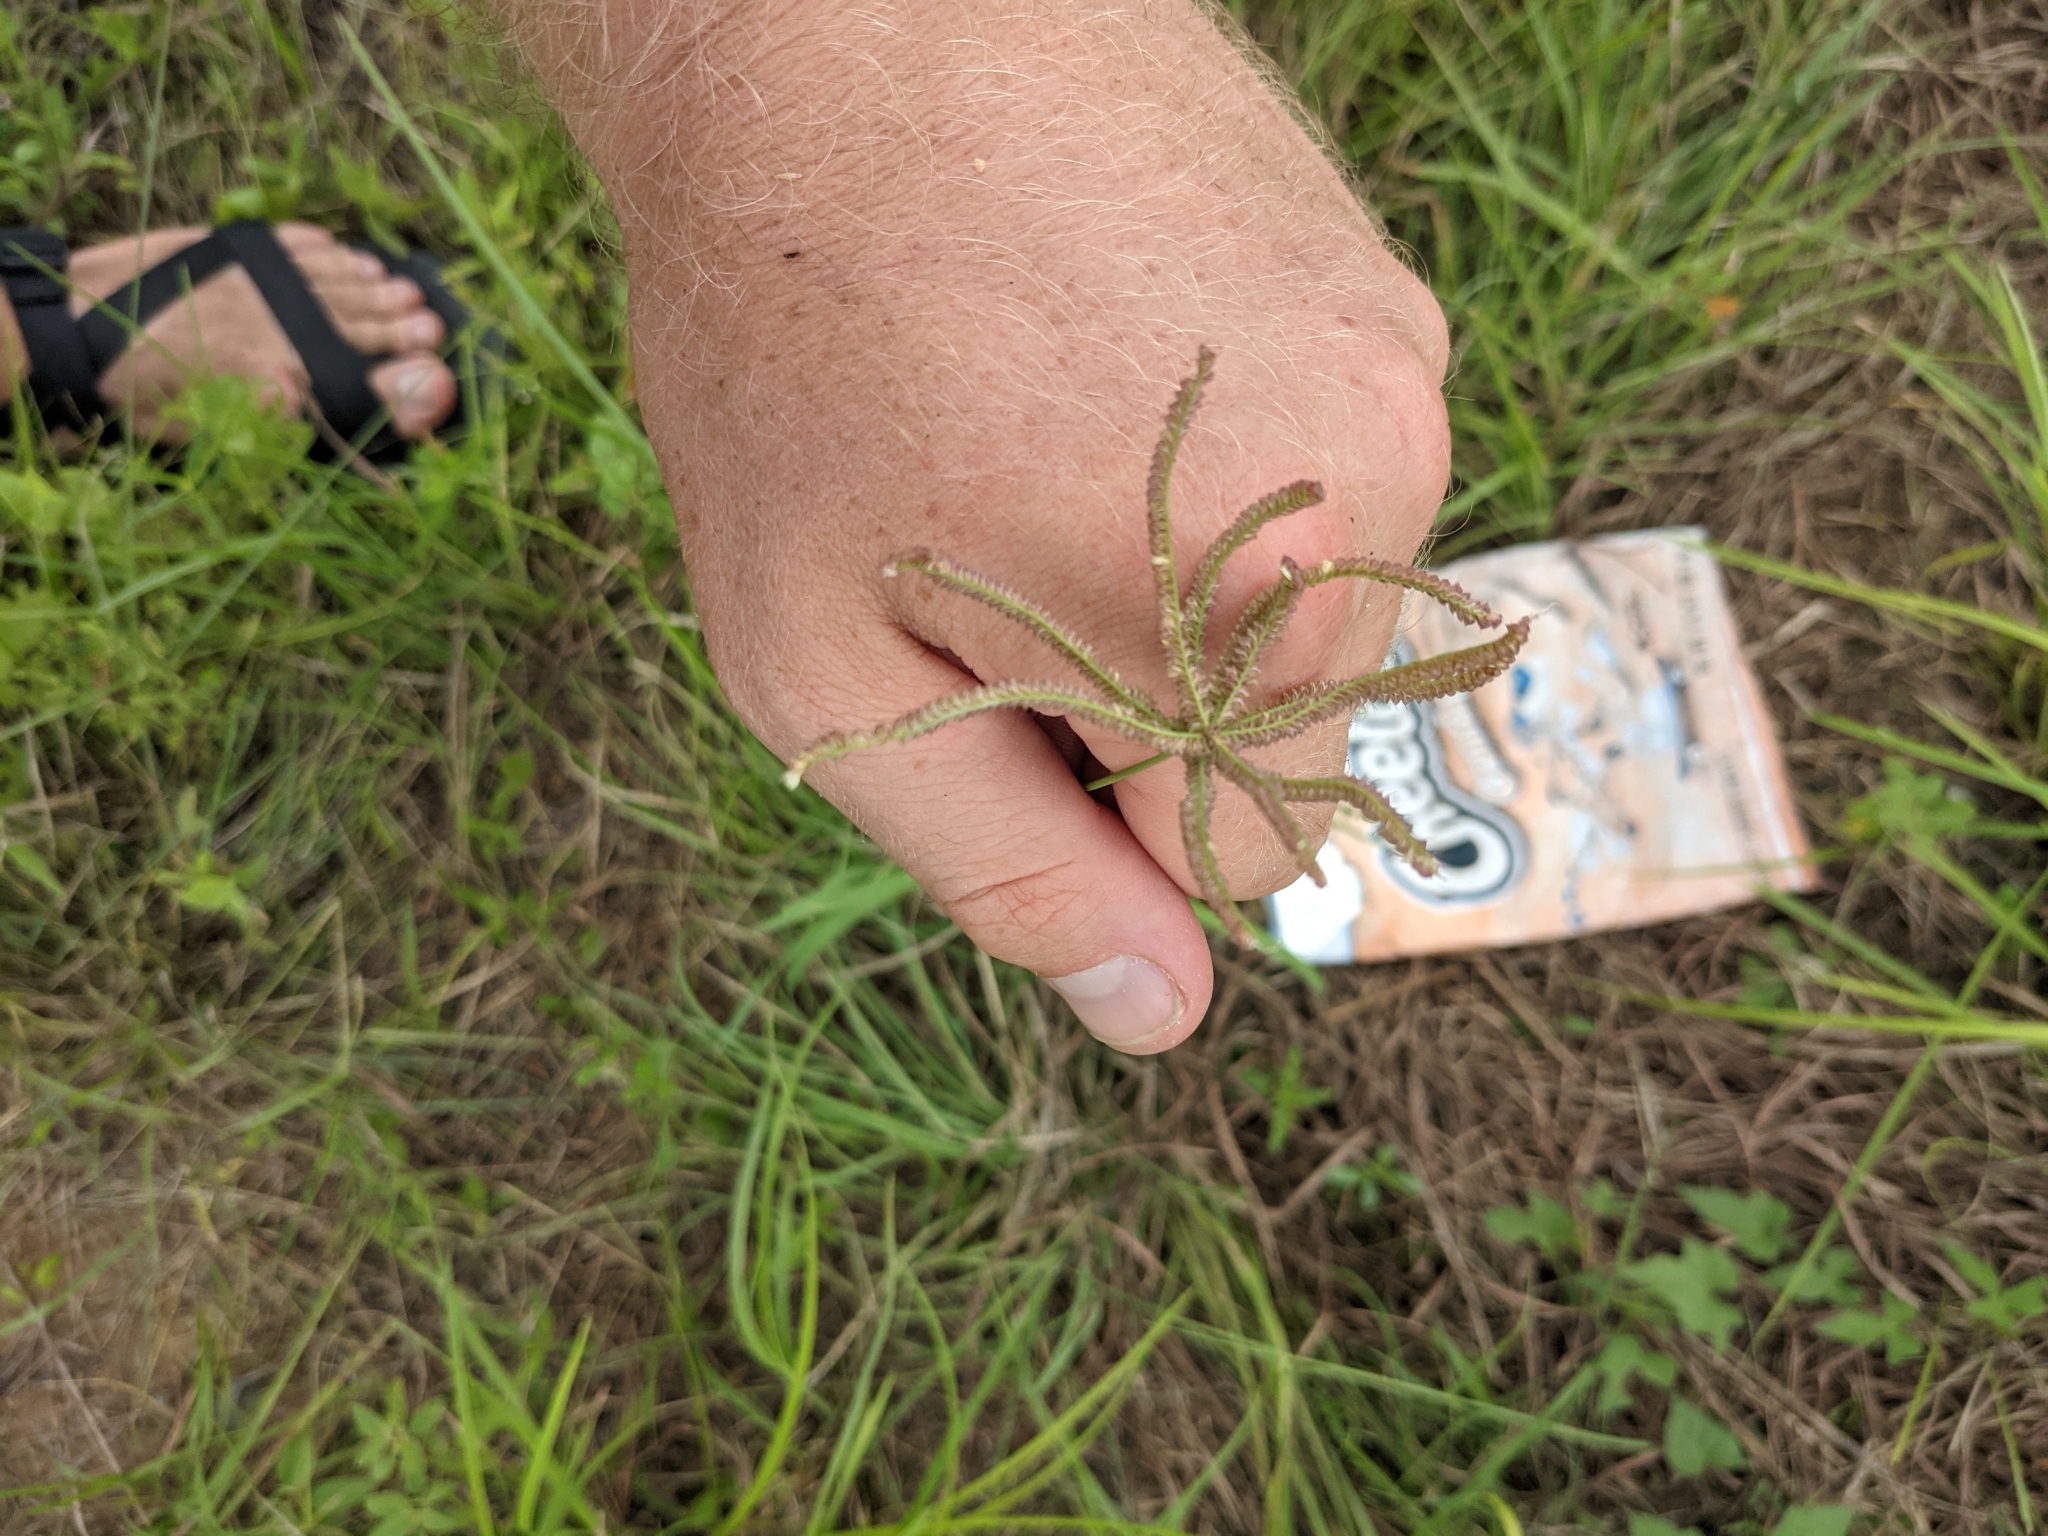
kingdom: Plantae
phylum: Tracheophyta
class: Liliopsida
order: Poales
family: Poaceae
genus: Chloris
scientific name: Chloris cucullata
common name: Hooded windmill grass
